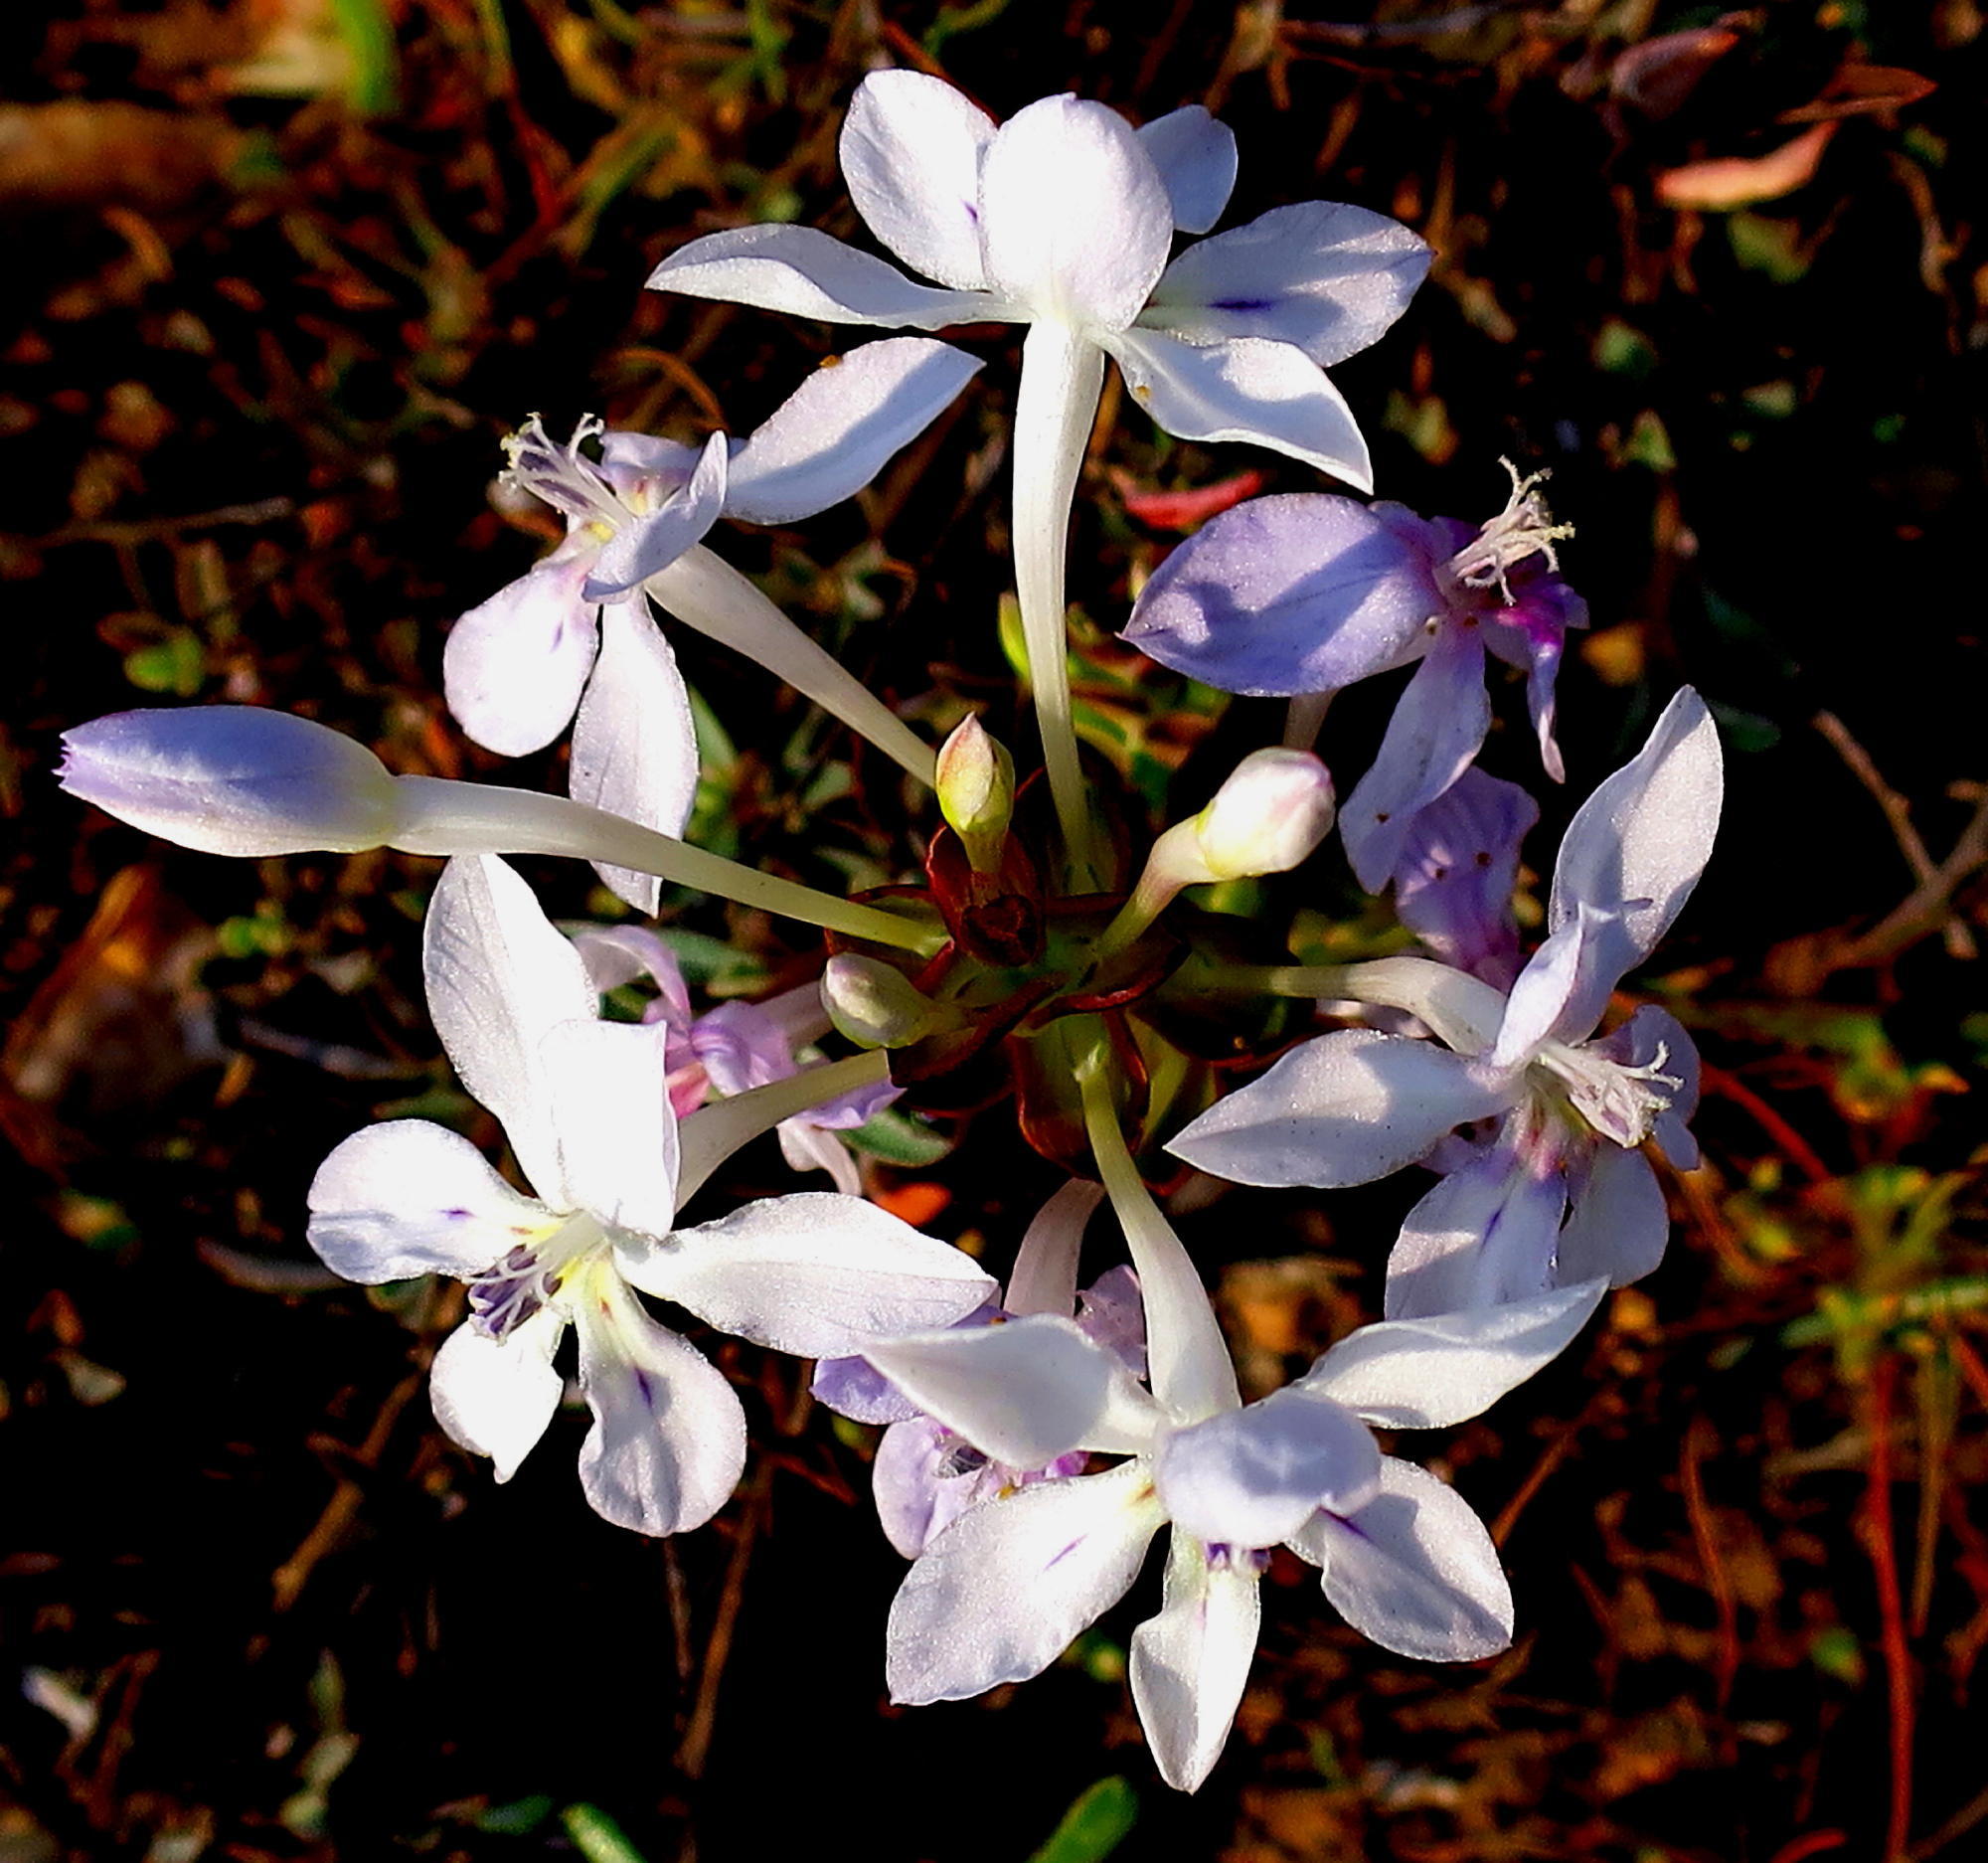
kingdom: Plantae
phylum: Tracheophyta
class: Liliopsida
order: Asparagales
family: Iridaceae
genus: Lapeirousia
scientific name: Lapeirousia pyramidalis
